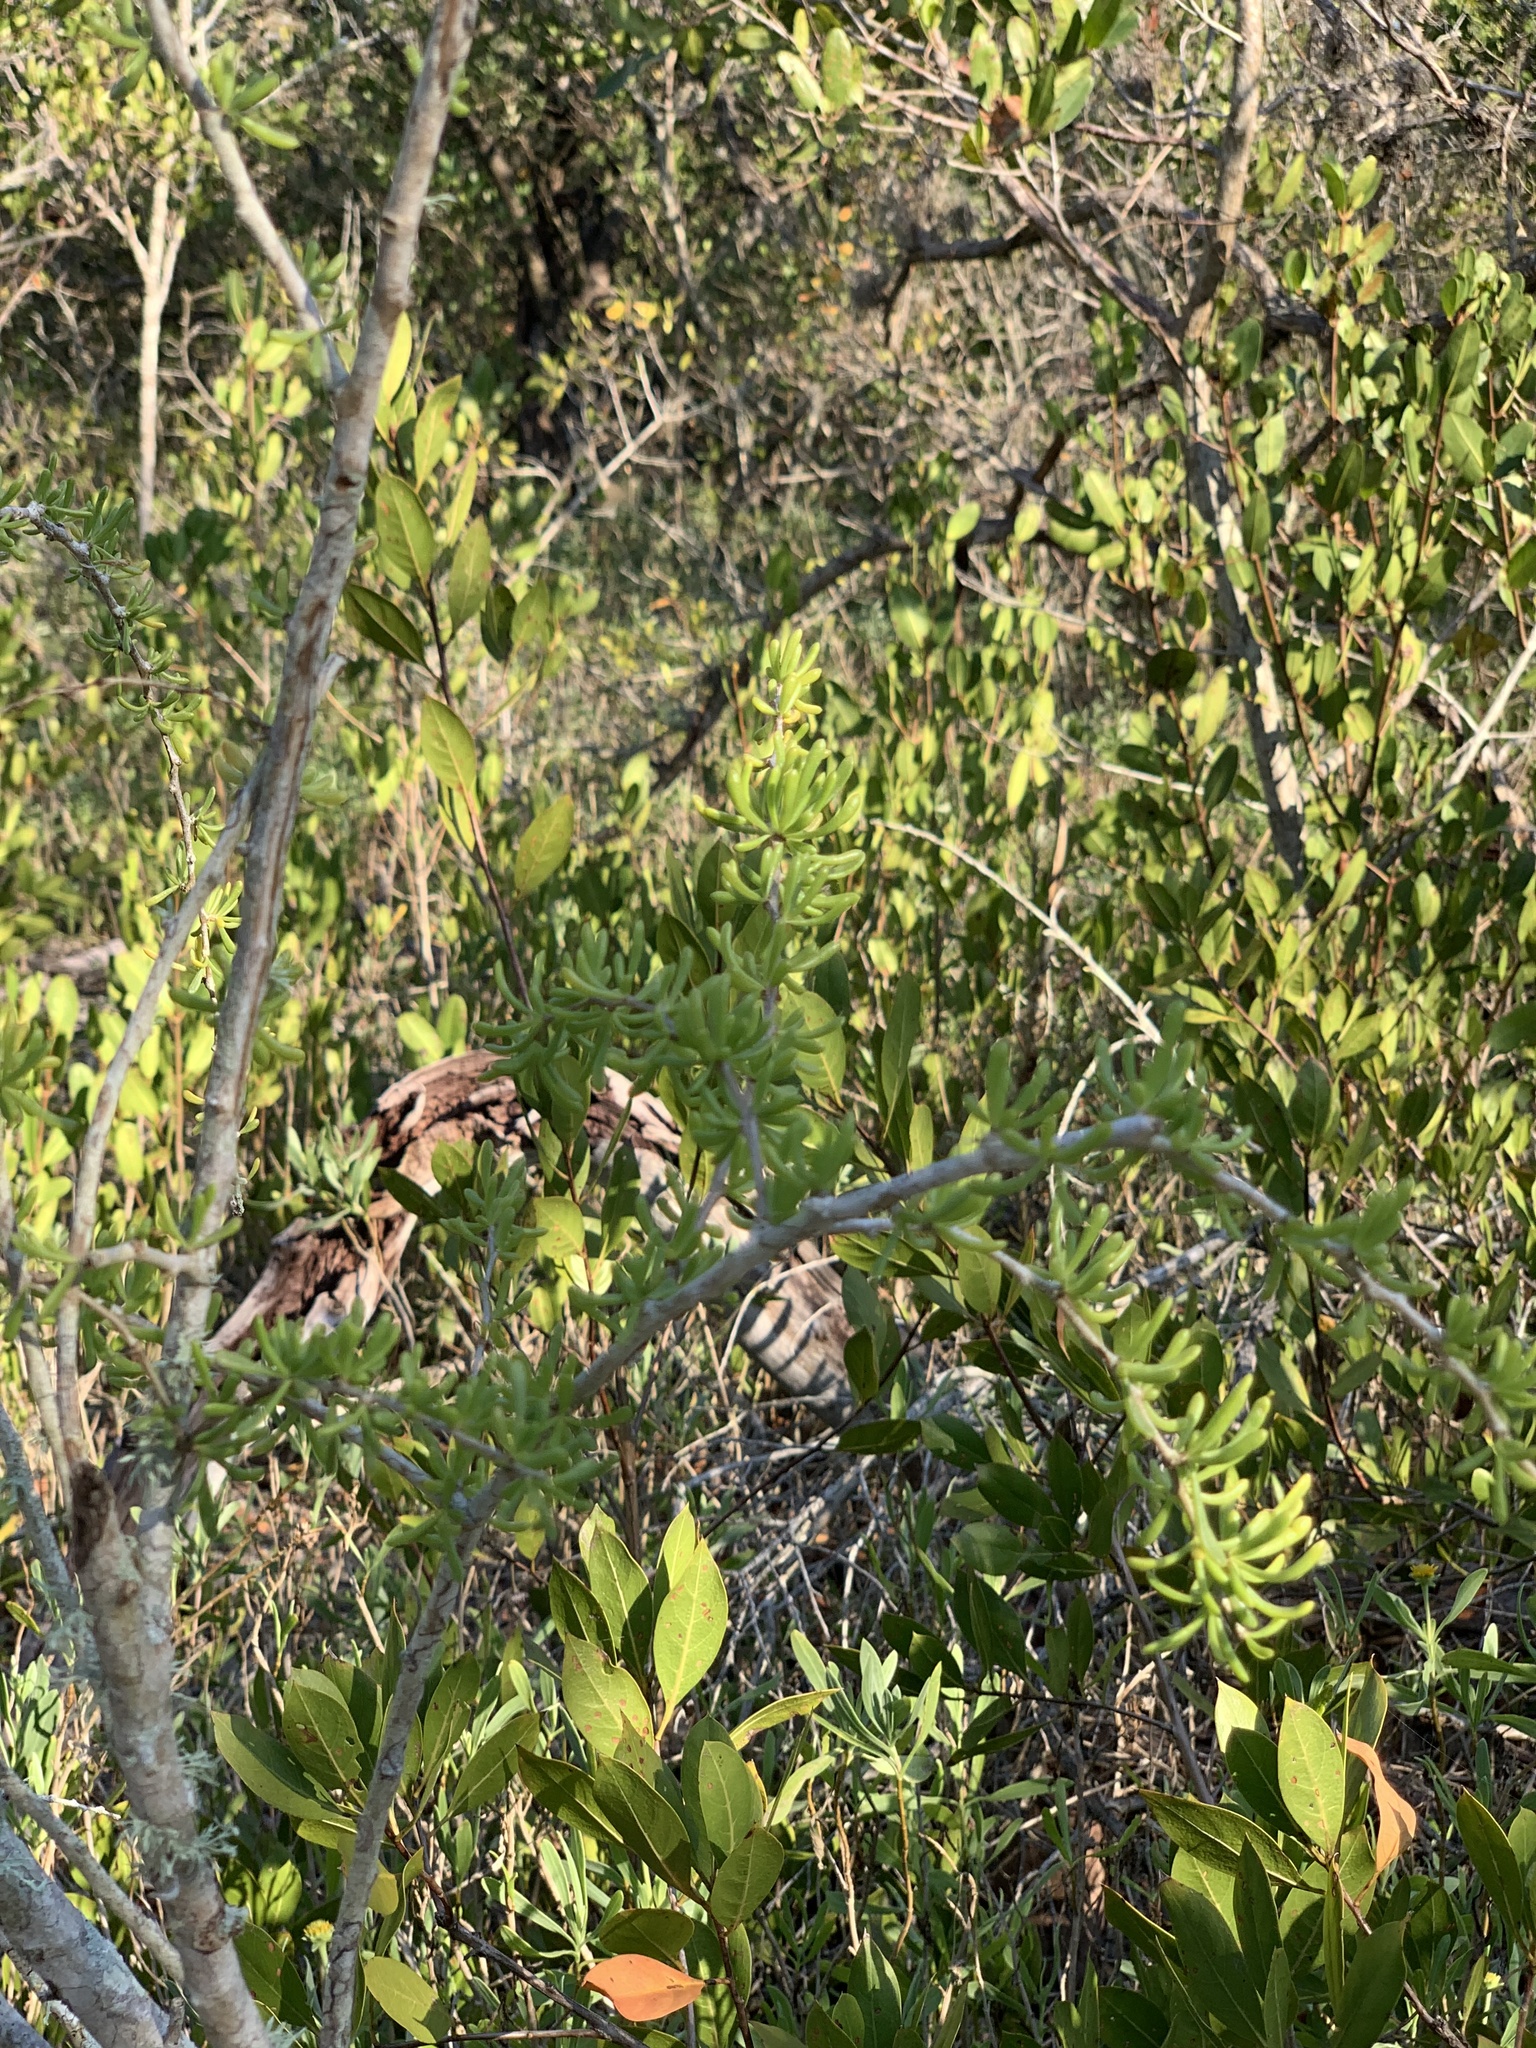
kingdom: Plantae
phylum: Tracheophyta
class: Magnoliopsida
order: Solanales
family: Solanaceae
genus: Lycium
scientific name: Lycium carolinianum
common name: Christmasberry
